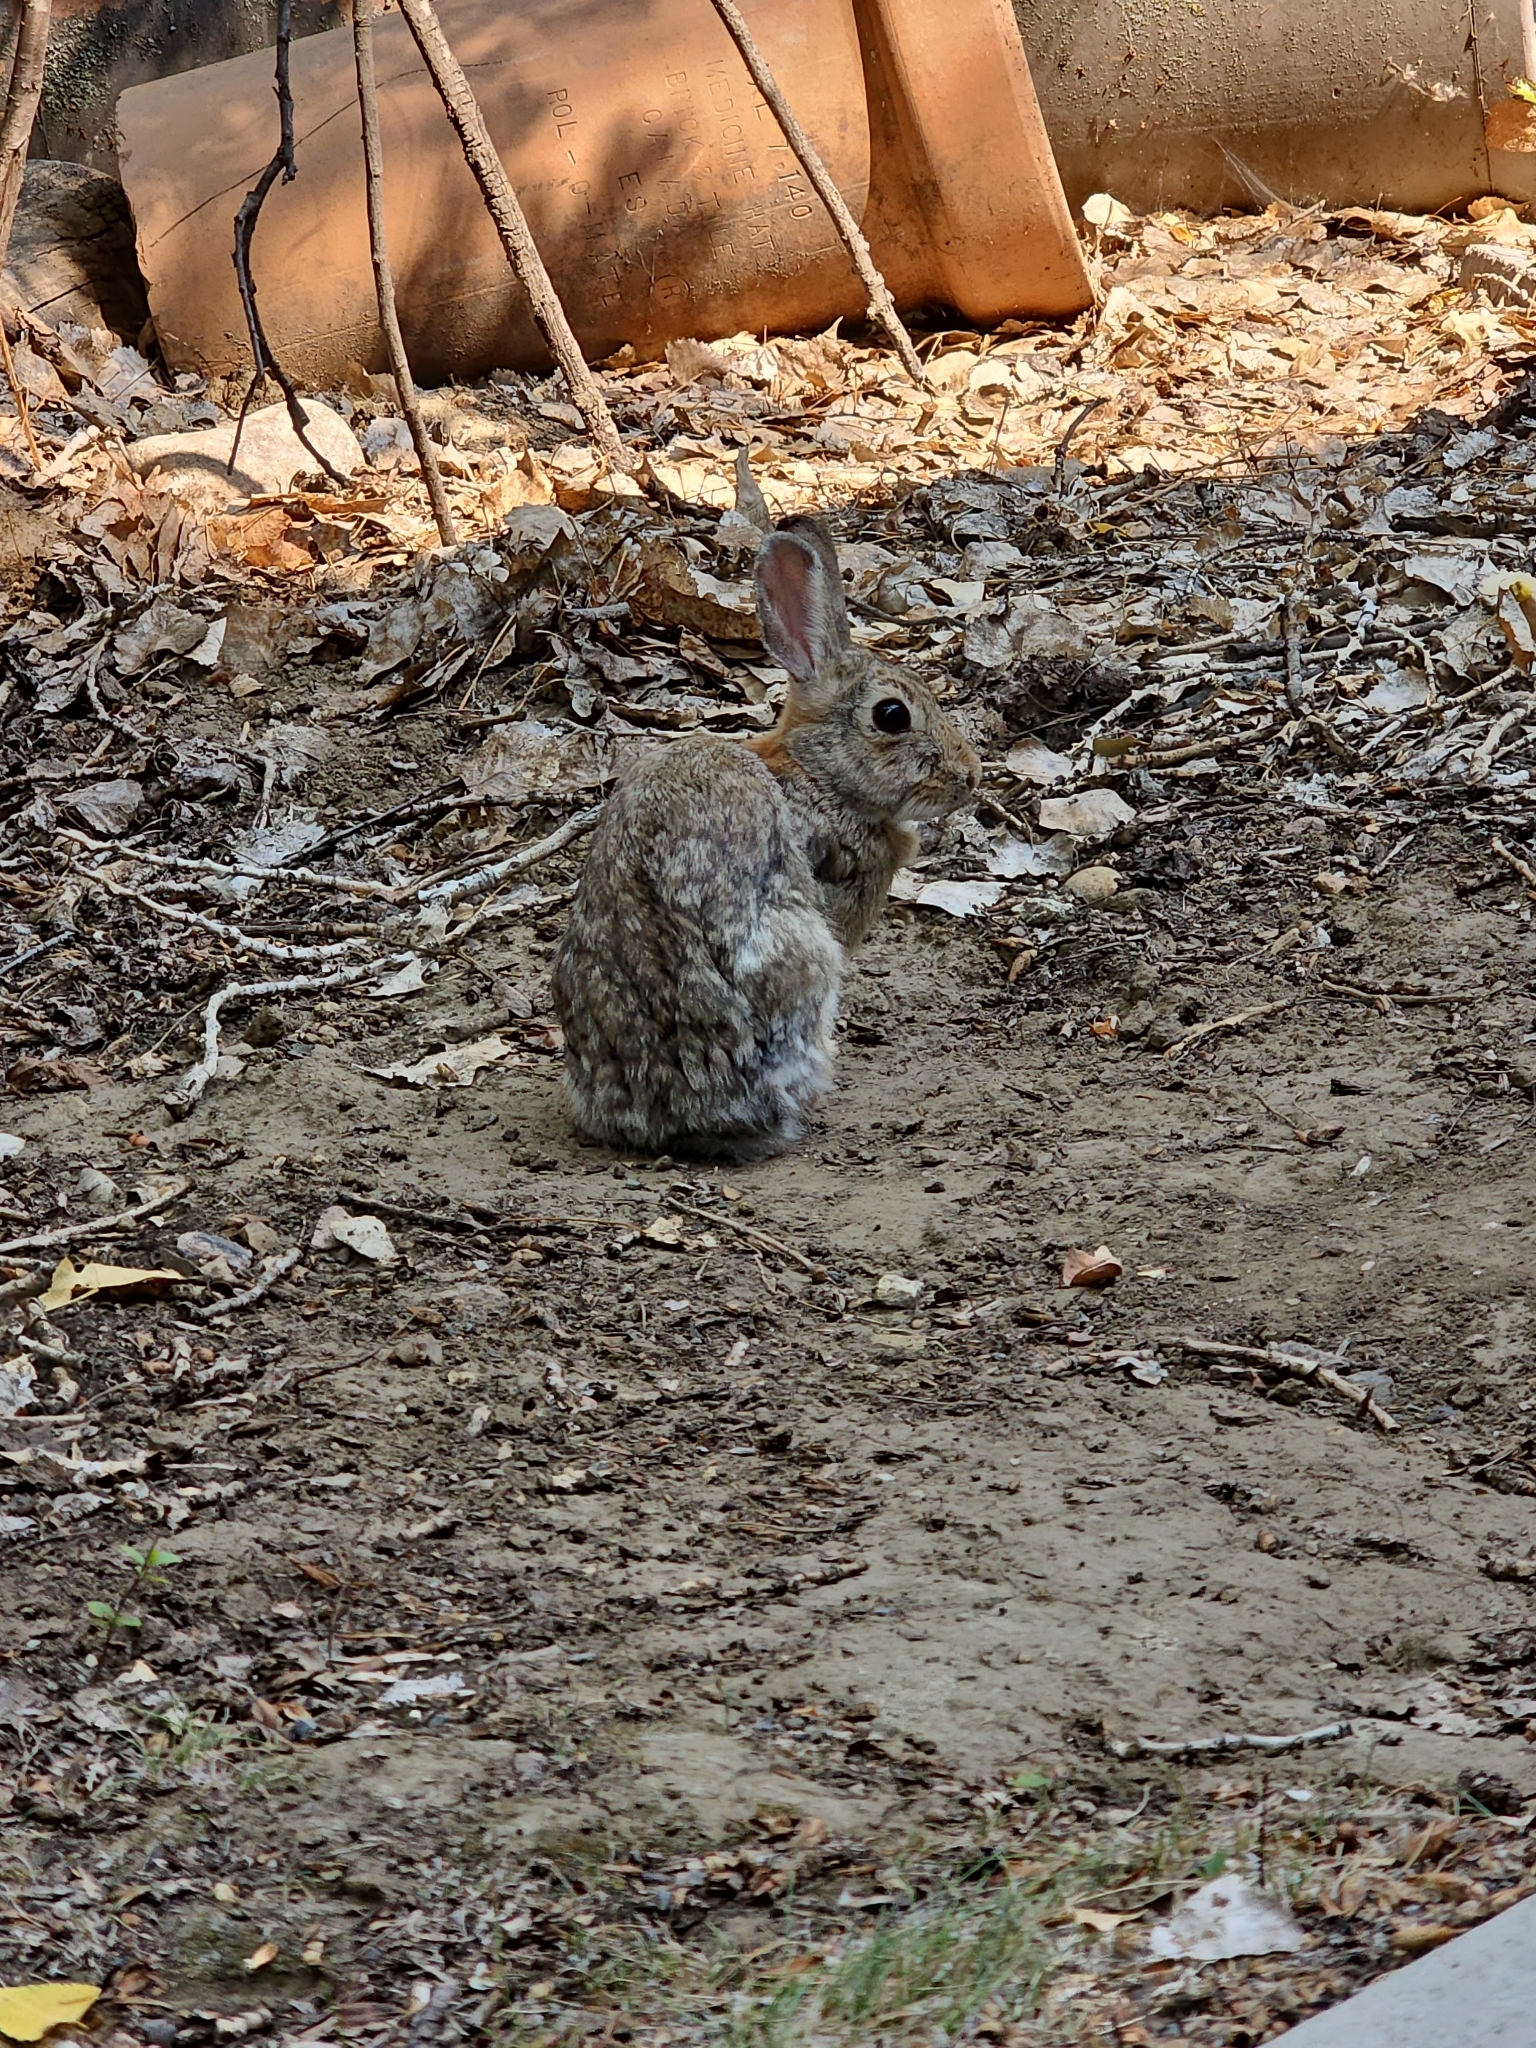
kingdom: Animalia
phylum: Chordata
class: Mammalia
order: Lagomorpha
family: Leporidae
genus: Sylvilagus
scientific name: Sylvilagus nuttallii
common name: Mountain cottontail
